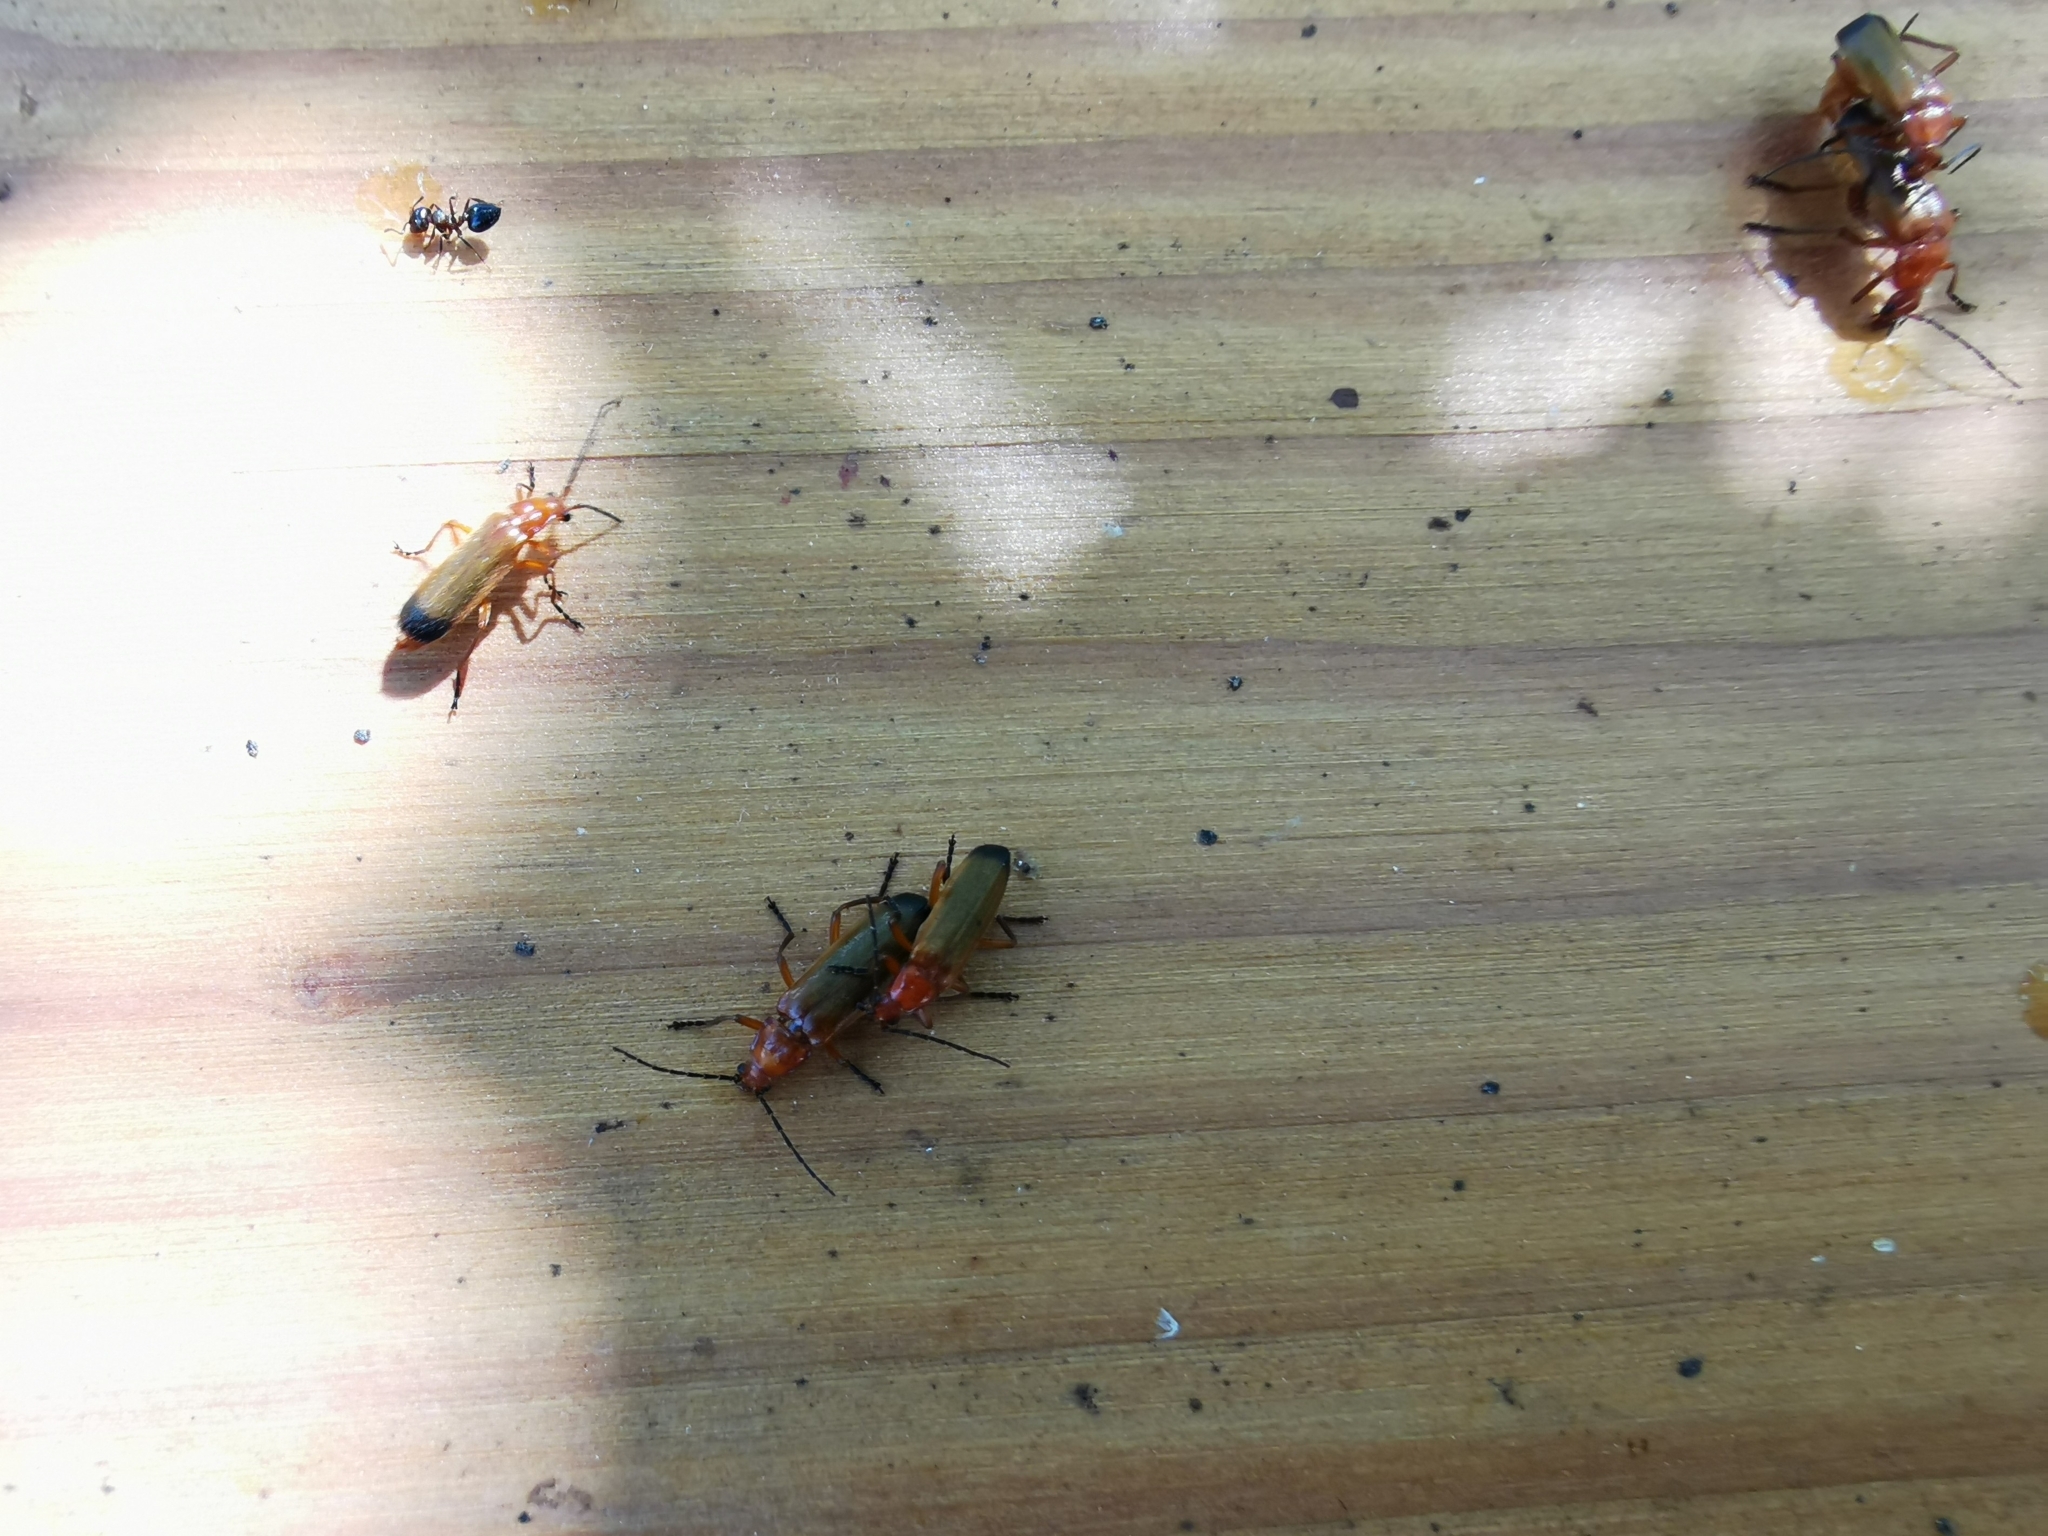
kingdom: Animalia
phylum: Arthropoda
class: Insecta
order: Coleoptera
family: Cantharidae
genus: Rhagonycha
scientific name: Rhagonycha fulva
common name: Common red soldier beetle
